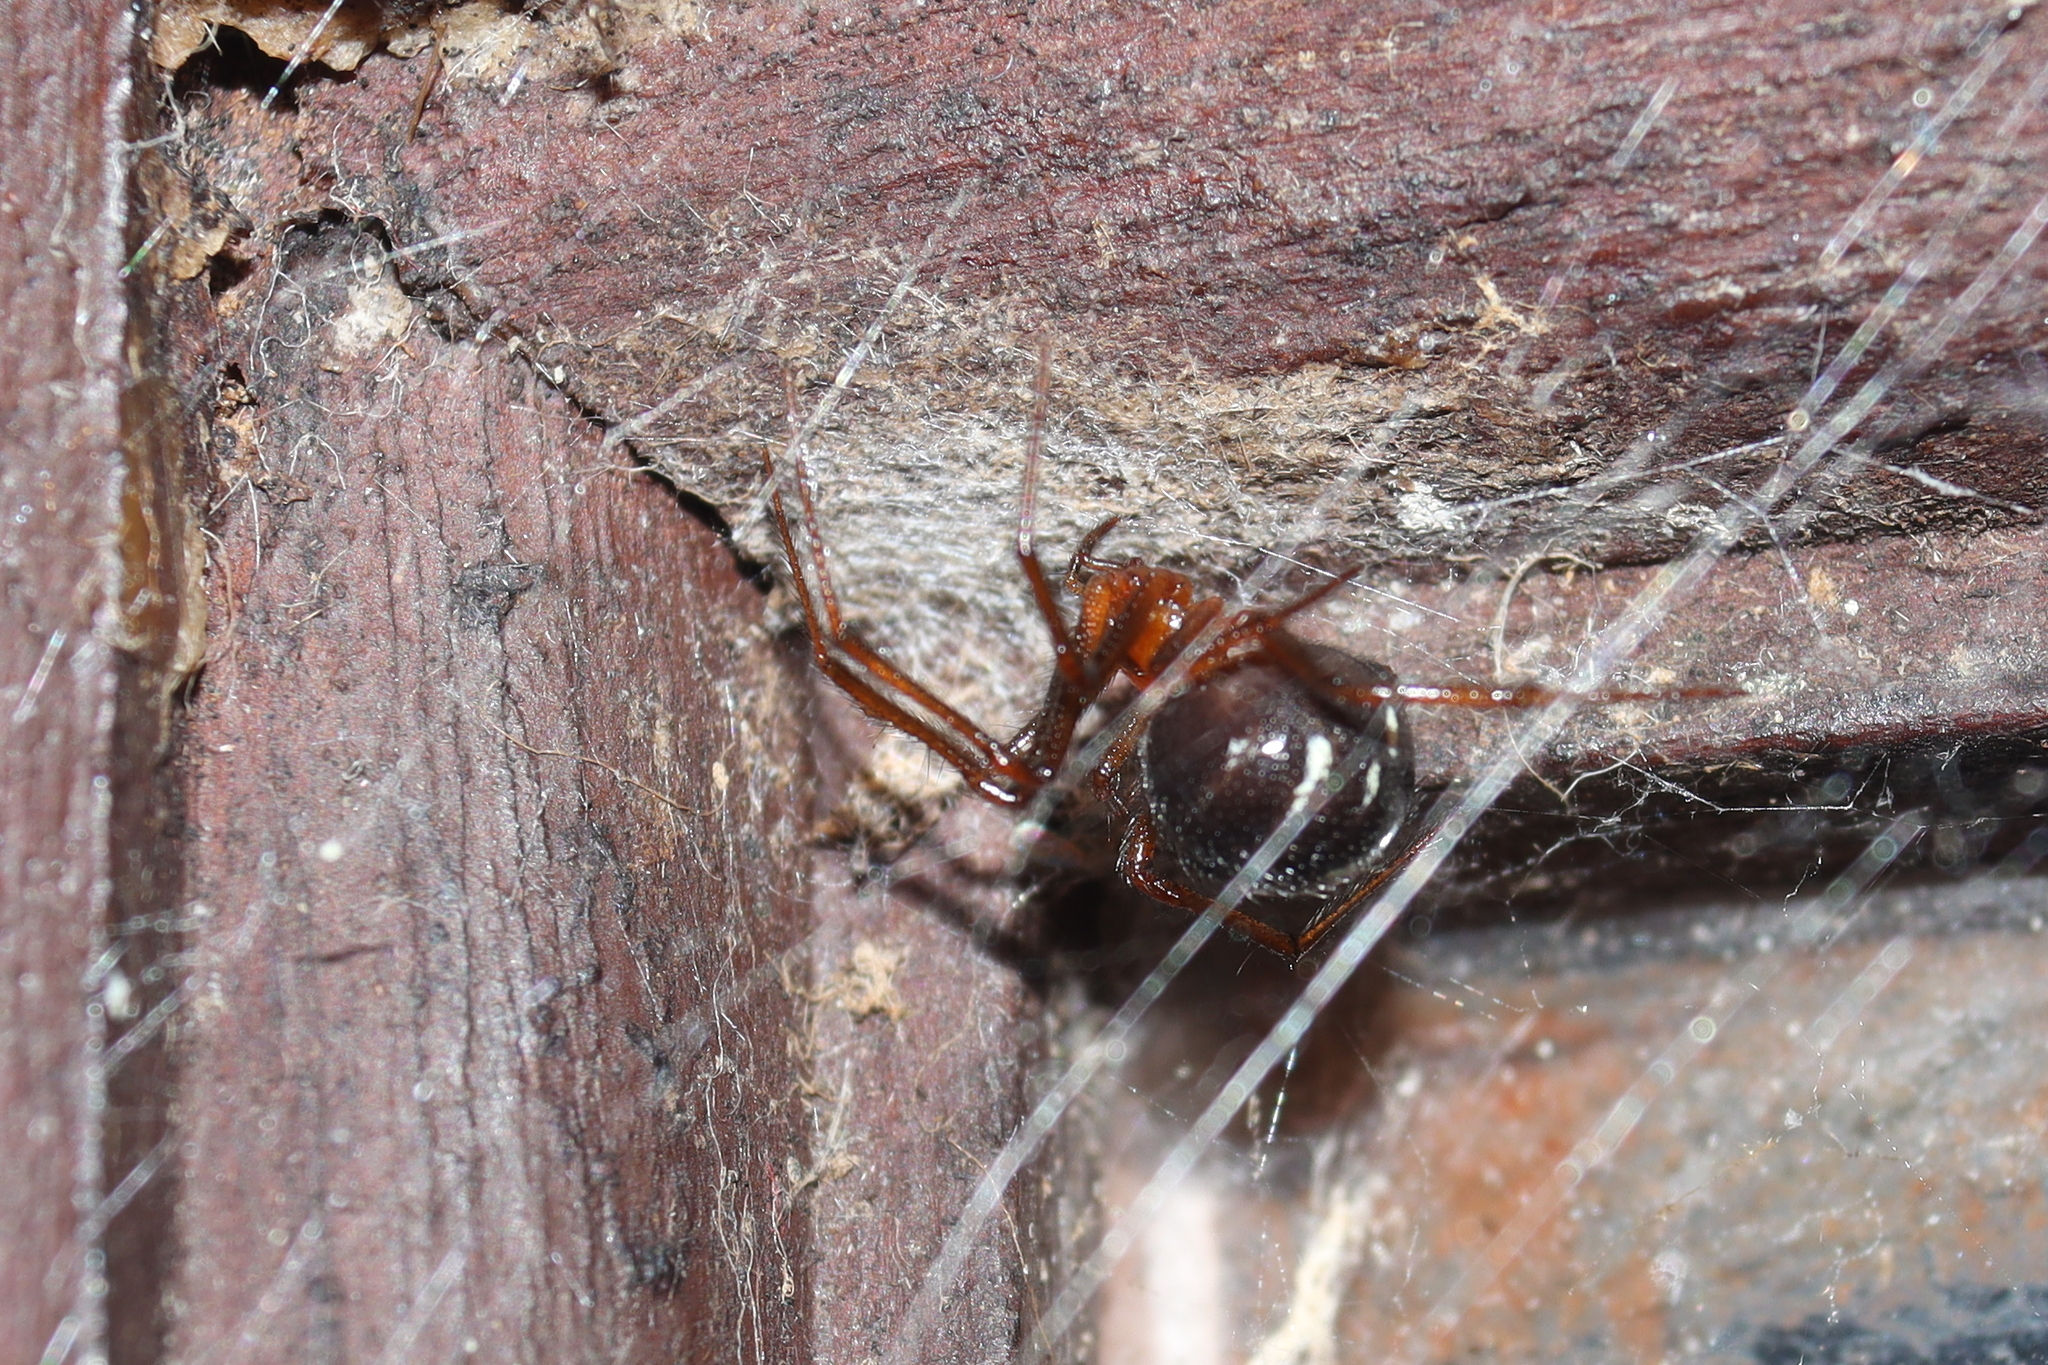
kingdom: Animalia
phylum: Arthropoda
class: Arachnida
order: Araneae
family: Theridiidae
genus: Nesticodes
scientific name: Nesticodes rufipes
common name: Cobweb spiders
